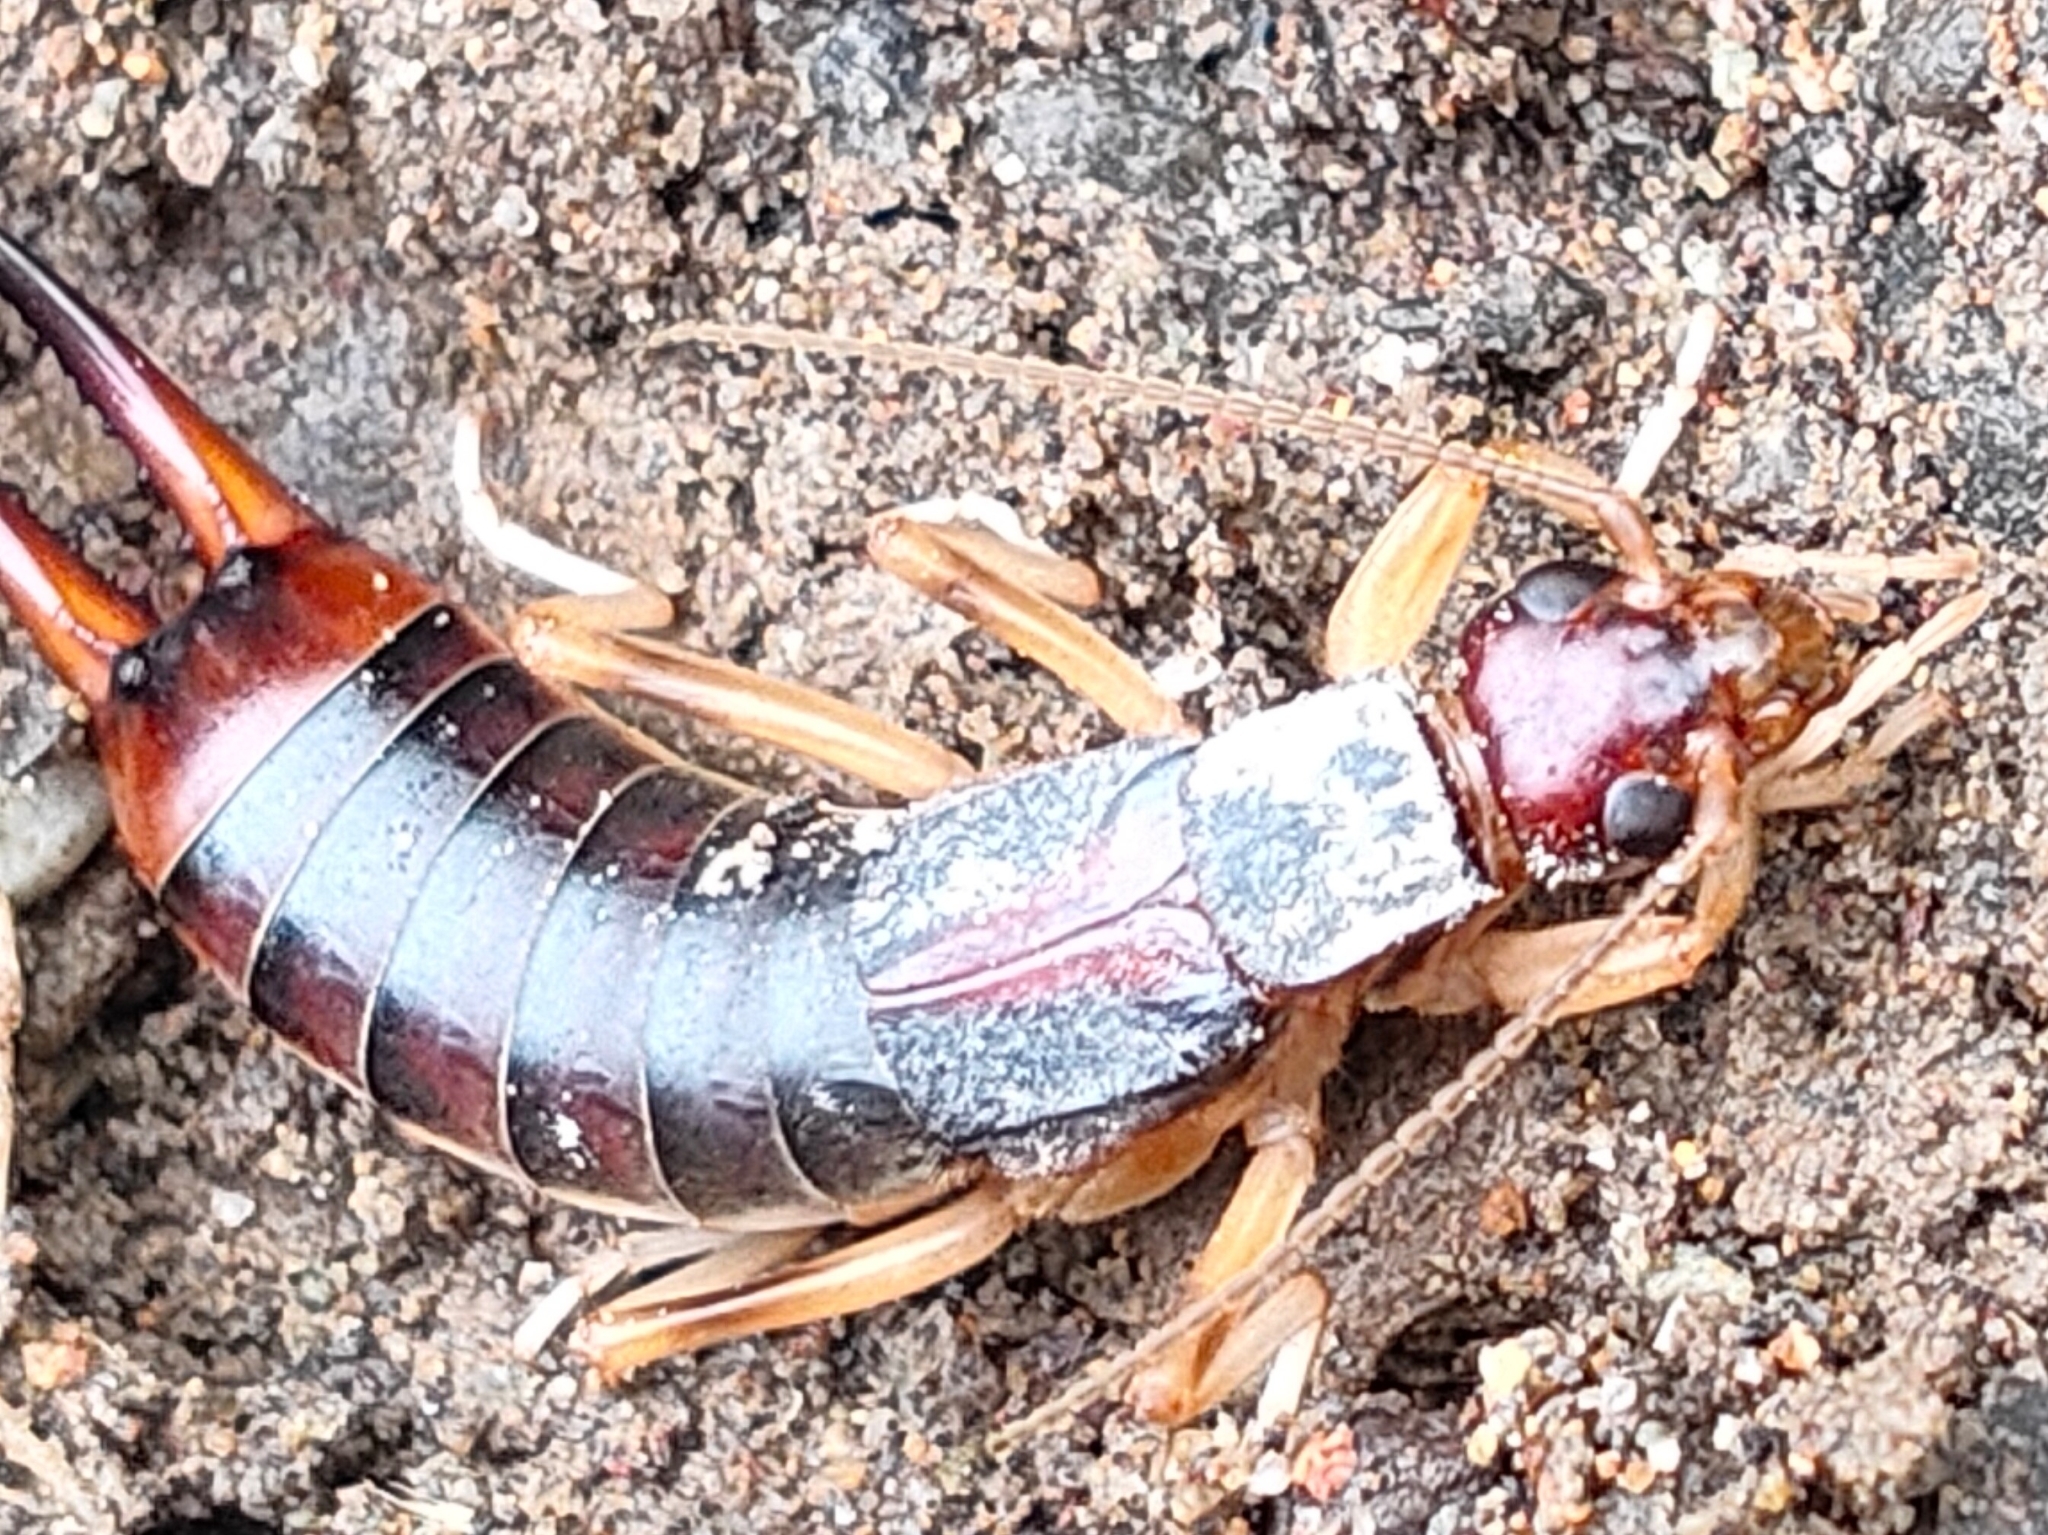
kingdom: Animalia
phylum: Arthropoda
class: Insecta
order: Dermaptera
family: Labiduridae
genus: Labidura
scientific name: Labidura riparia
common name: Striped earwig
